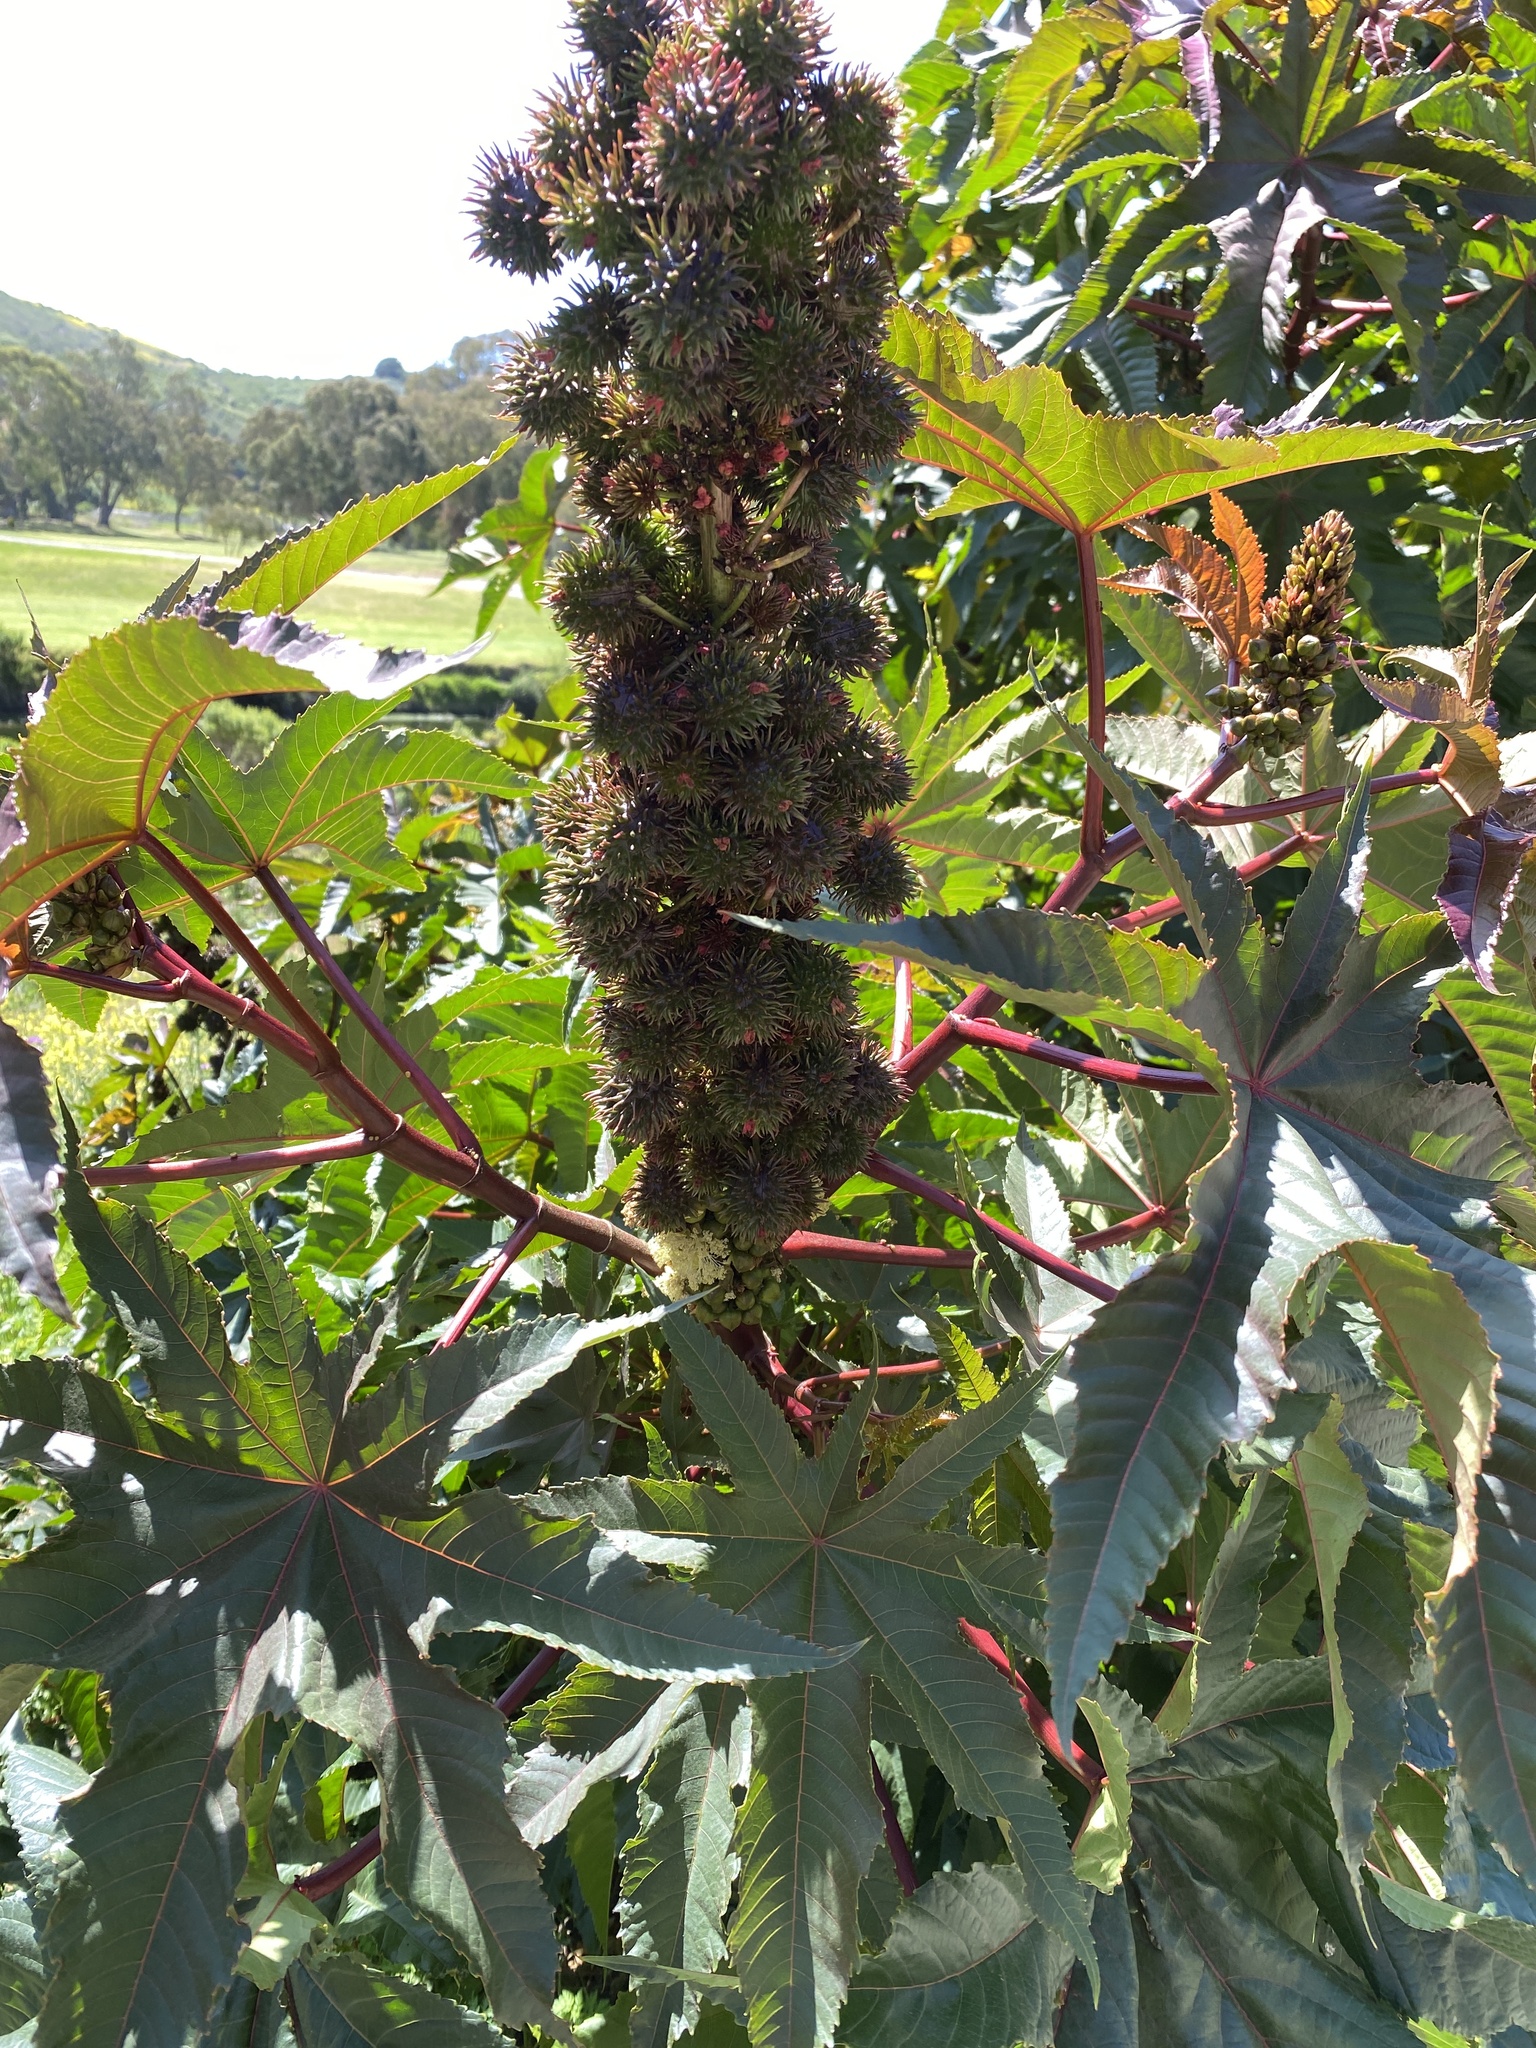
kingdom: Plantae
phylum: Tracheophyta
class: Magnoliopsida
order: Malpighiales
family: Euphorbiaceae
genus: Ricinus
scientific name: Ricinus communis
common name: Castor-oil-plant
